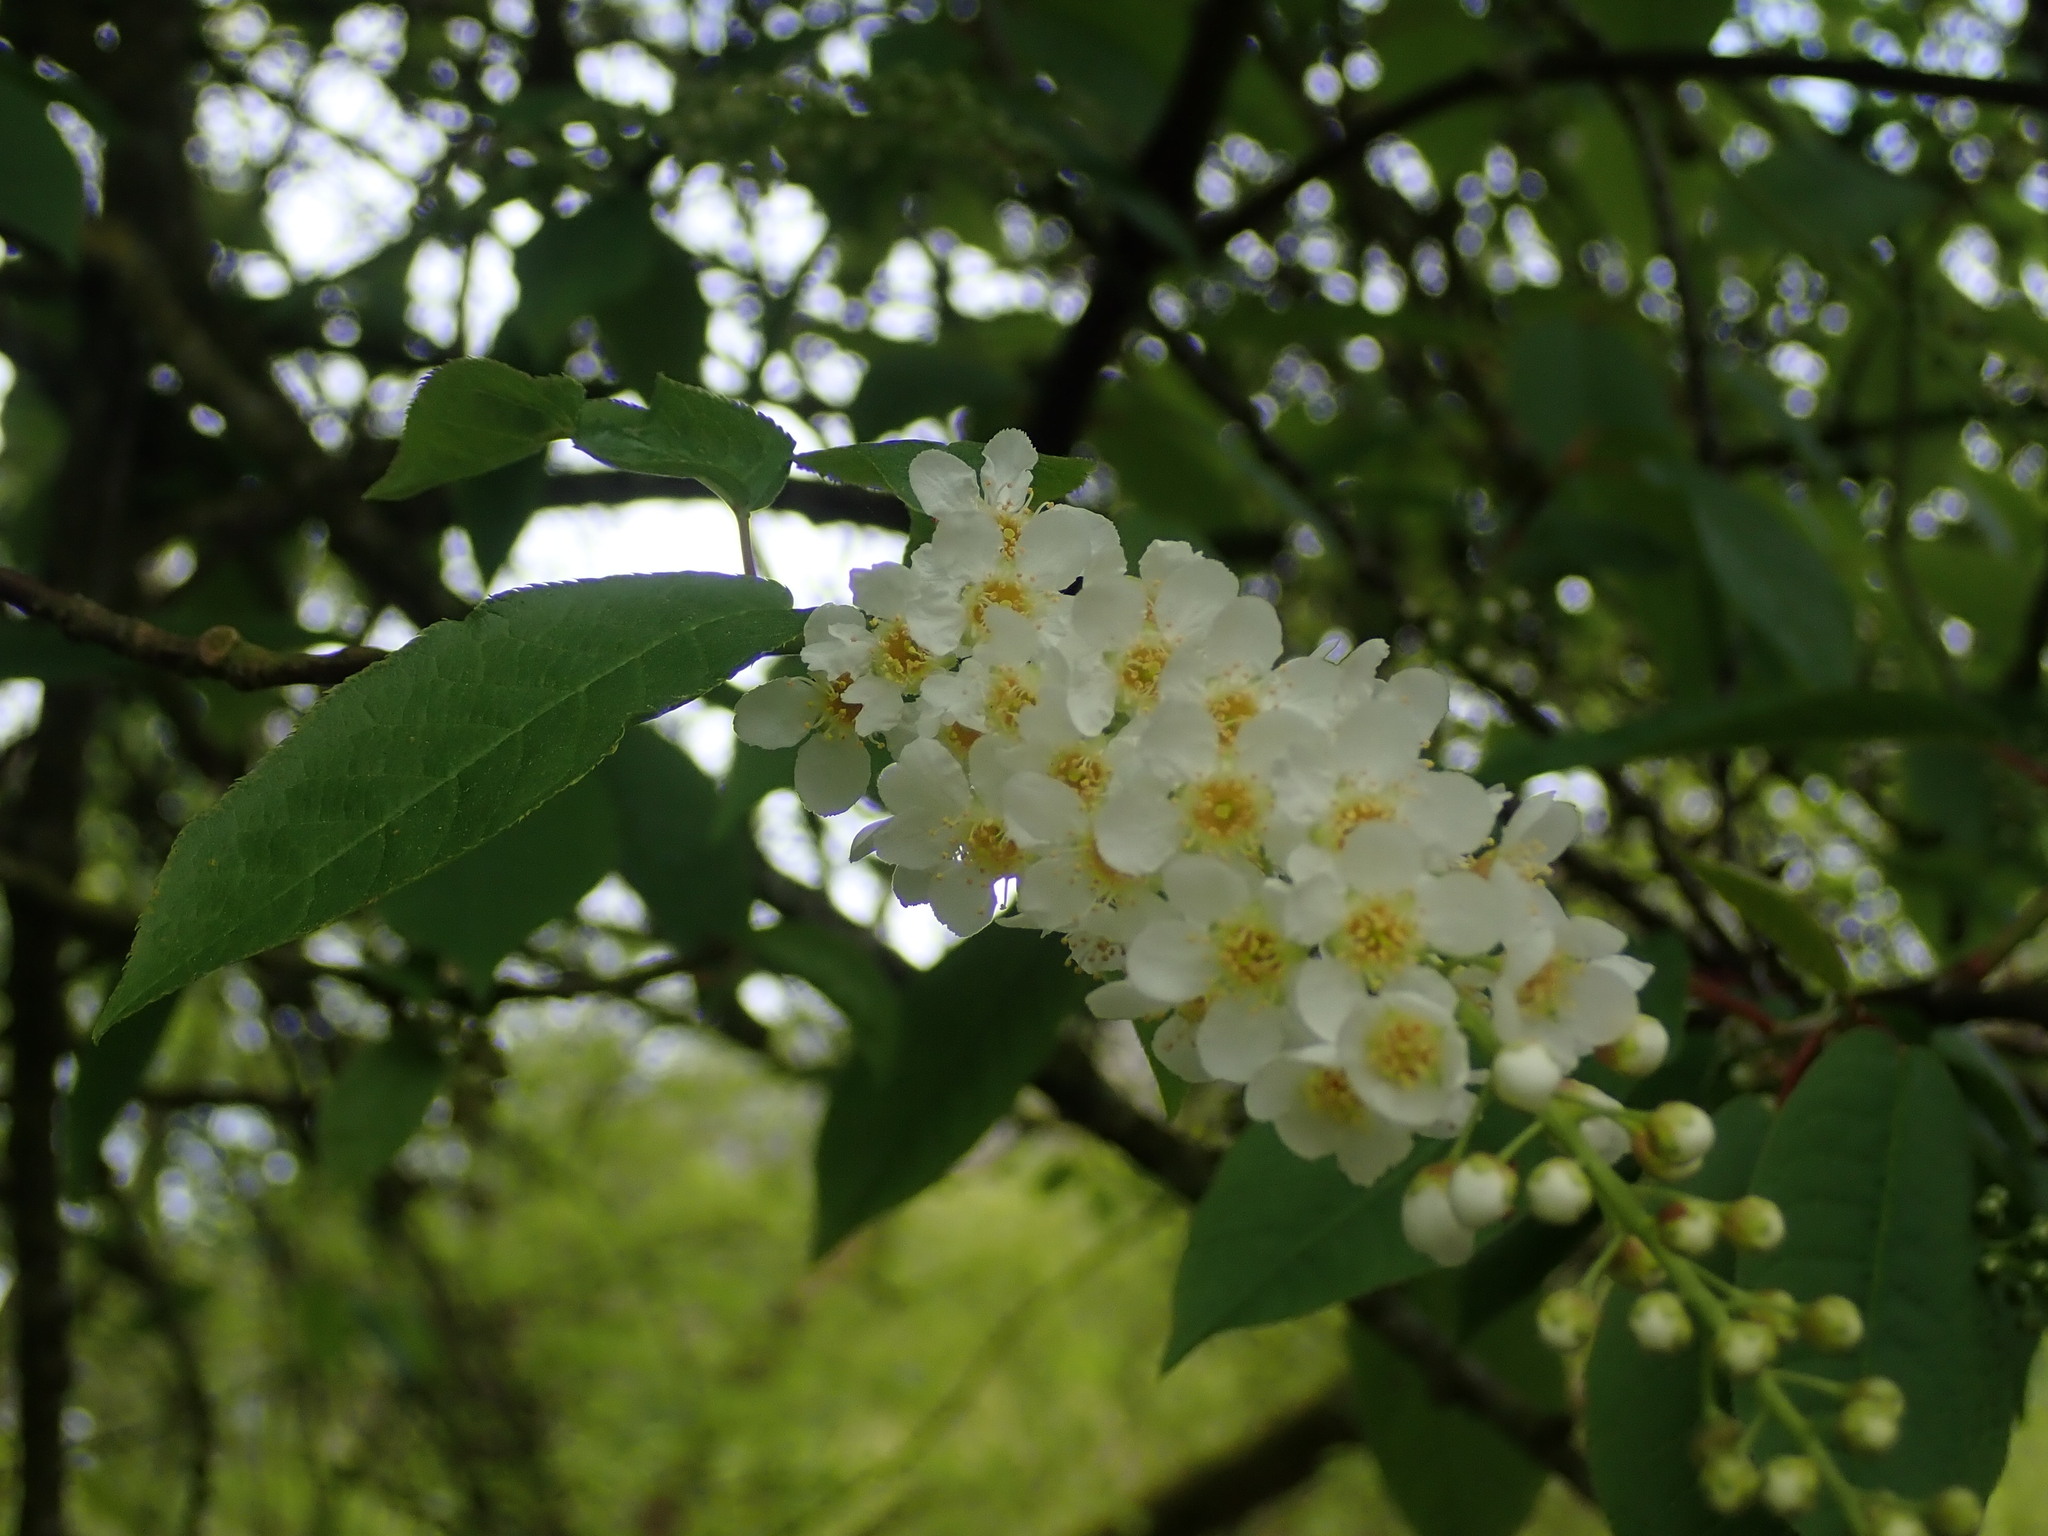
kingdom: Plantae
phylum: Tracheophyta
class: Magnoliopsida
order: Rosales
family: Rosaceae
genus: Prunus
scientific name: Prunus padus
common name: Bird cherry
